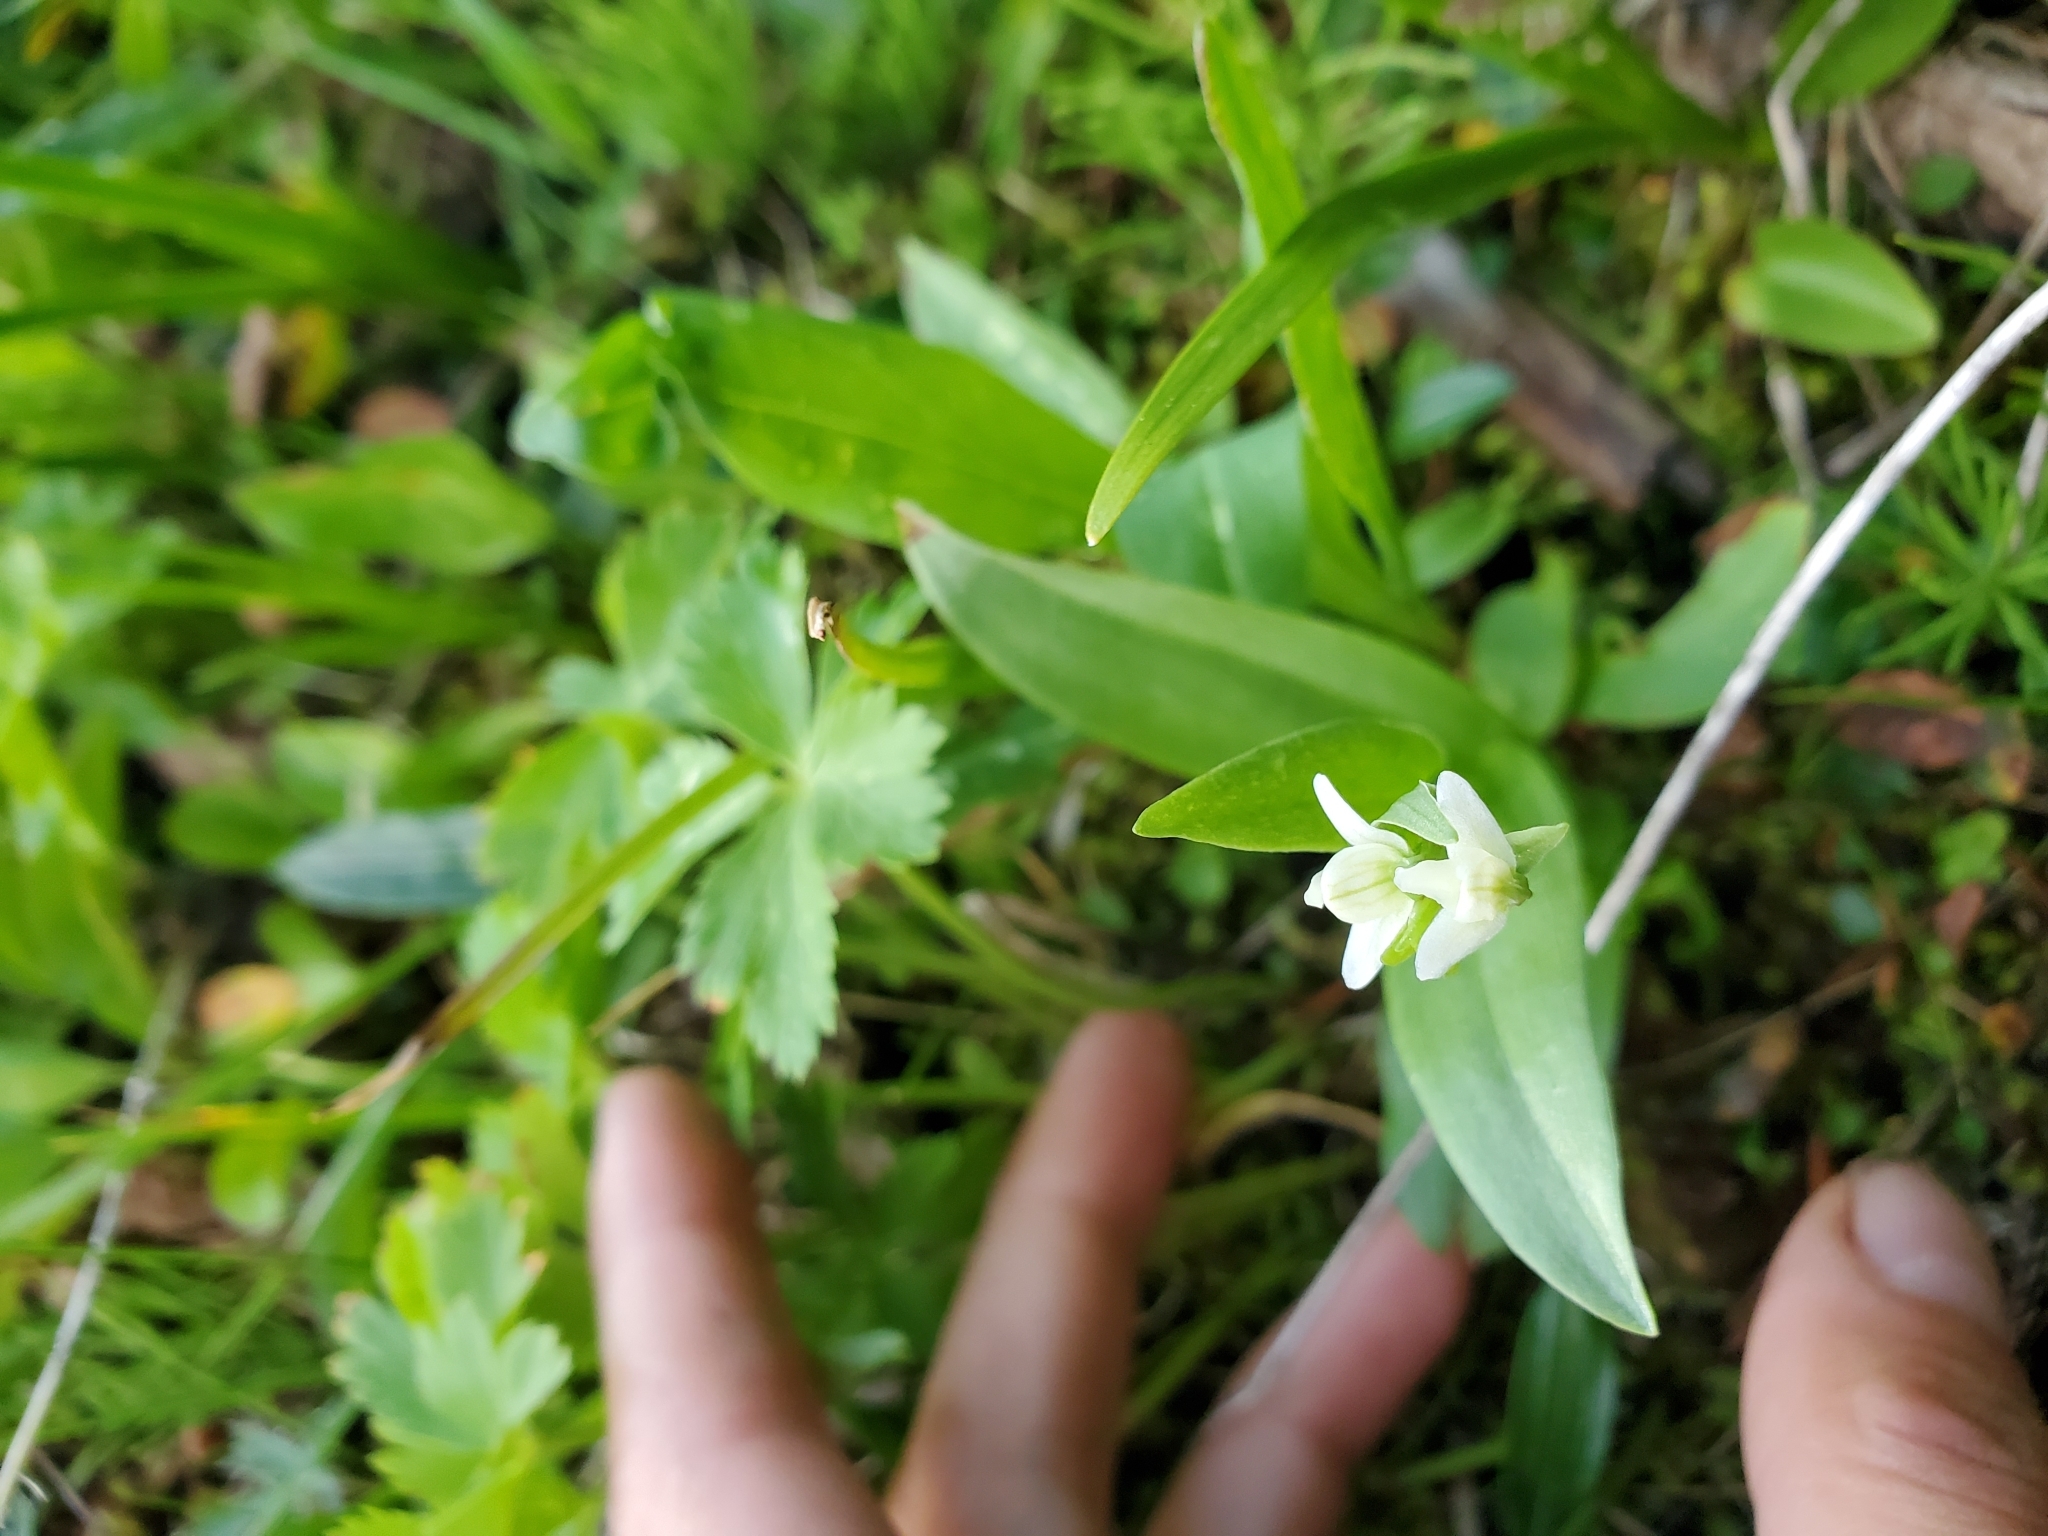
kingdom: Plantae
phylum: Tracheophyta
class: Liliopsida
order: Asparagales
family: Orchidaceae
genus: Platanthera
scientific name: Platanthera dilatata
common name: Bog candles
